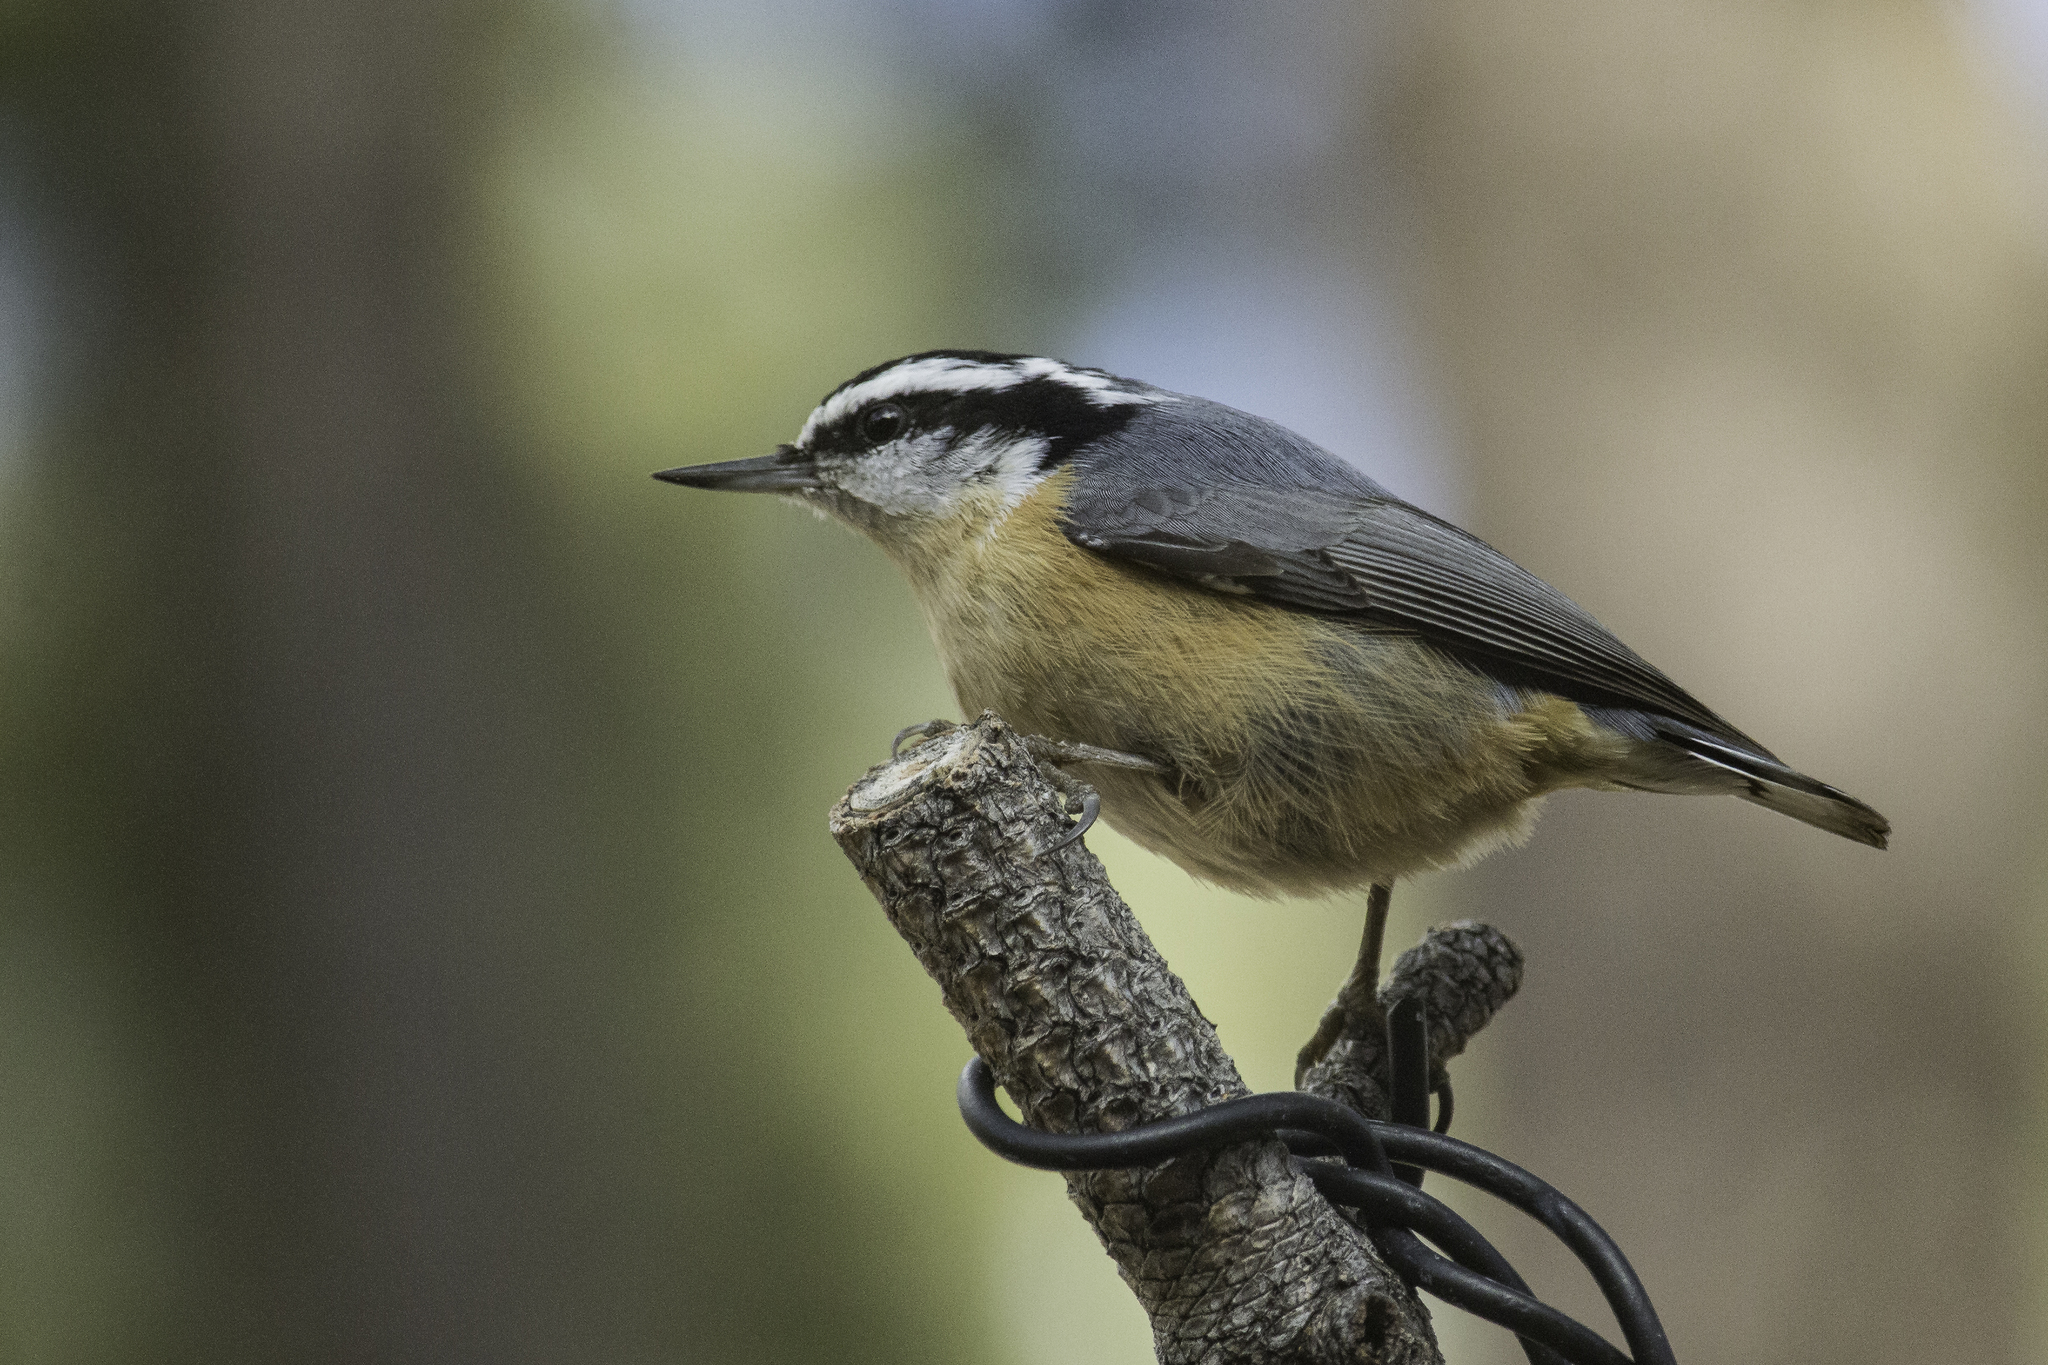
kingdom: Animalia
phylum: Chordata
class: Aves
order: Passeriformes
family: Sittidae
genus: Sitta
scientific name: Sitta canadensis
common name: Red-breasted nuthatch
